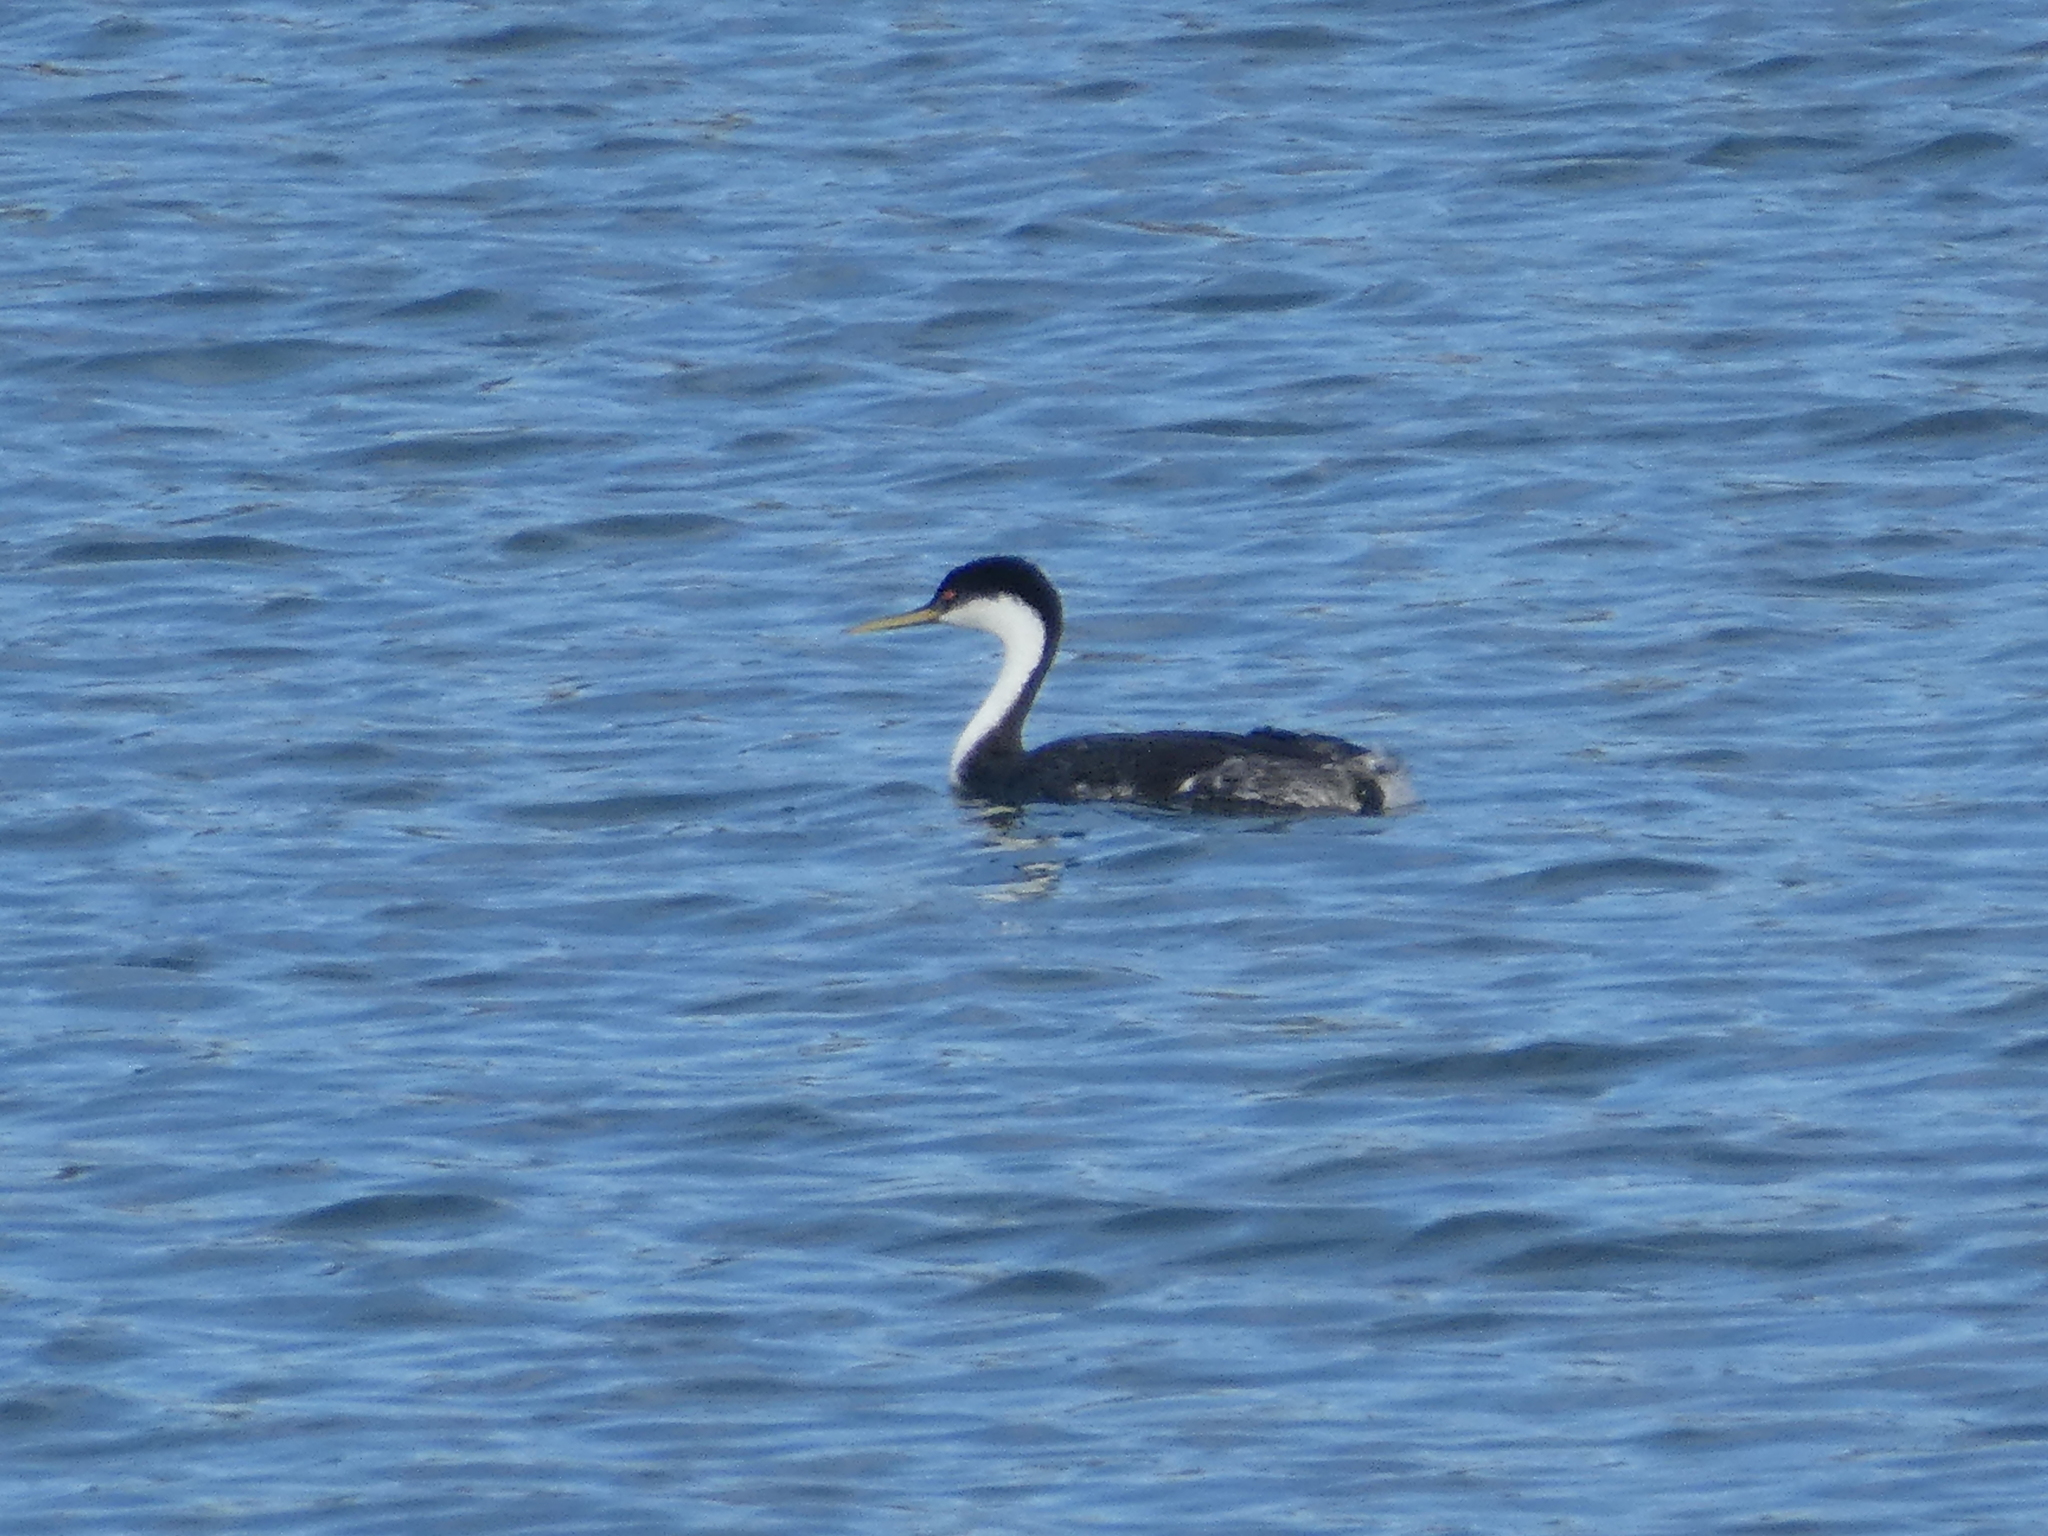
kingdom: Animalia
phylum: Chordata
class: Aves
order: Podicipediformes
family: Podicipedidae
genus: Aechmophorus
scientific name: Aechmophorus occidentalis
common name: Western grebe
